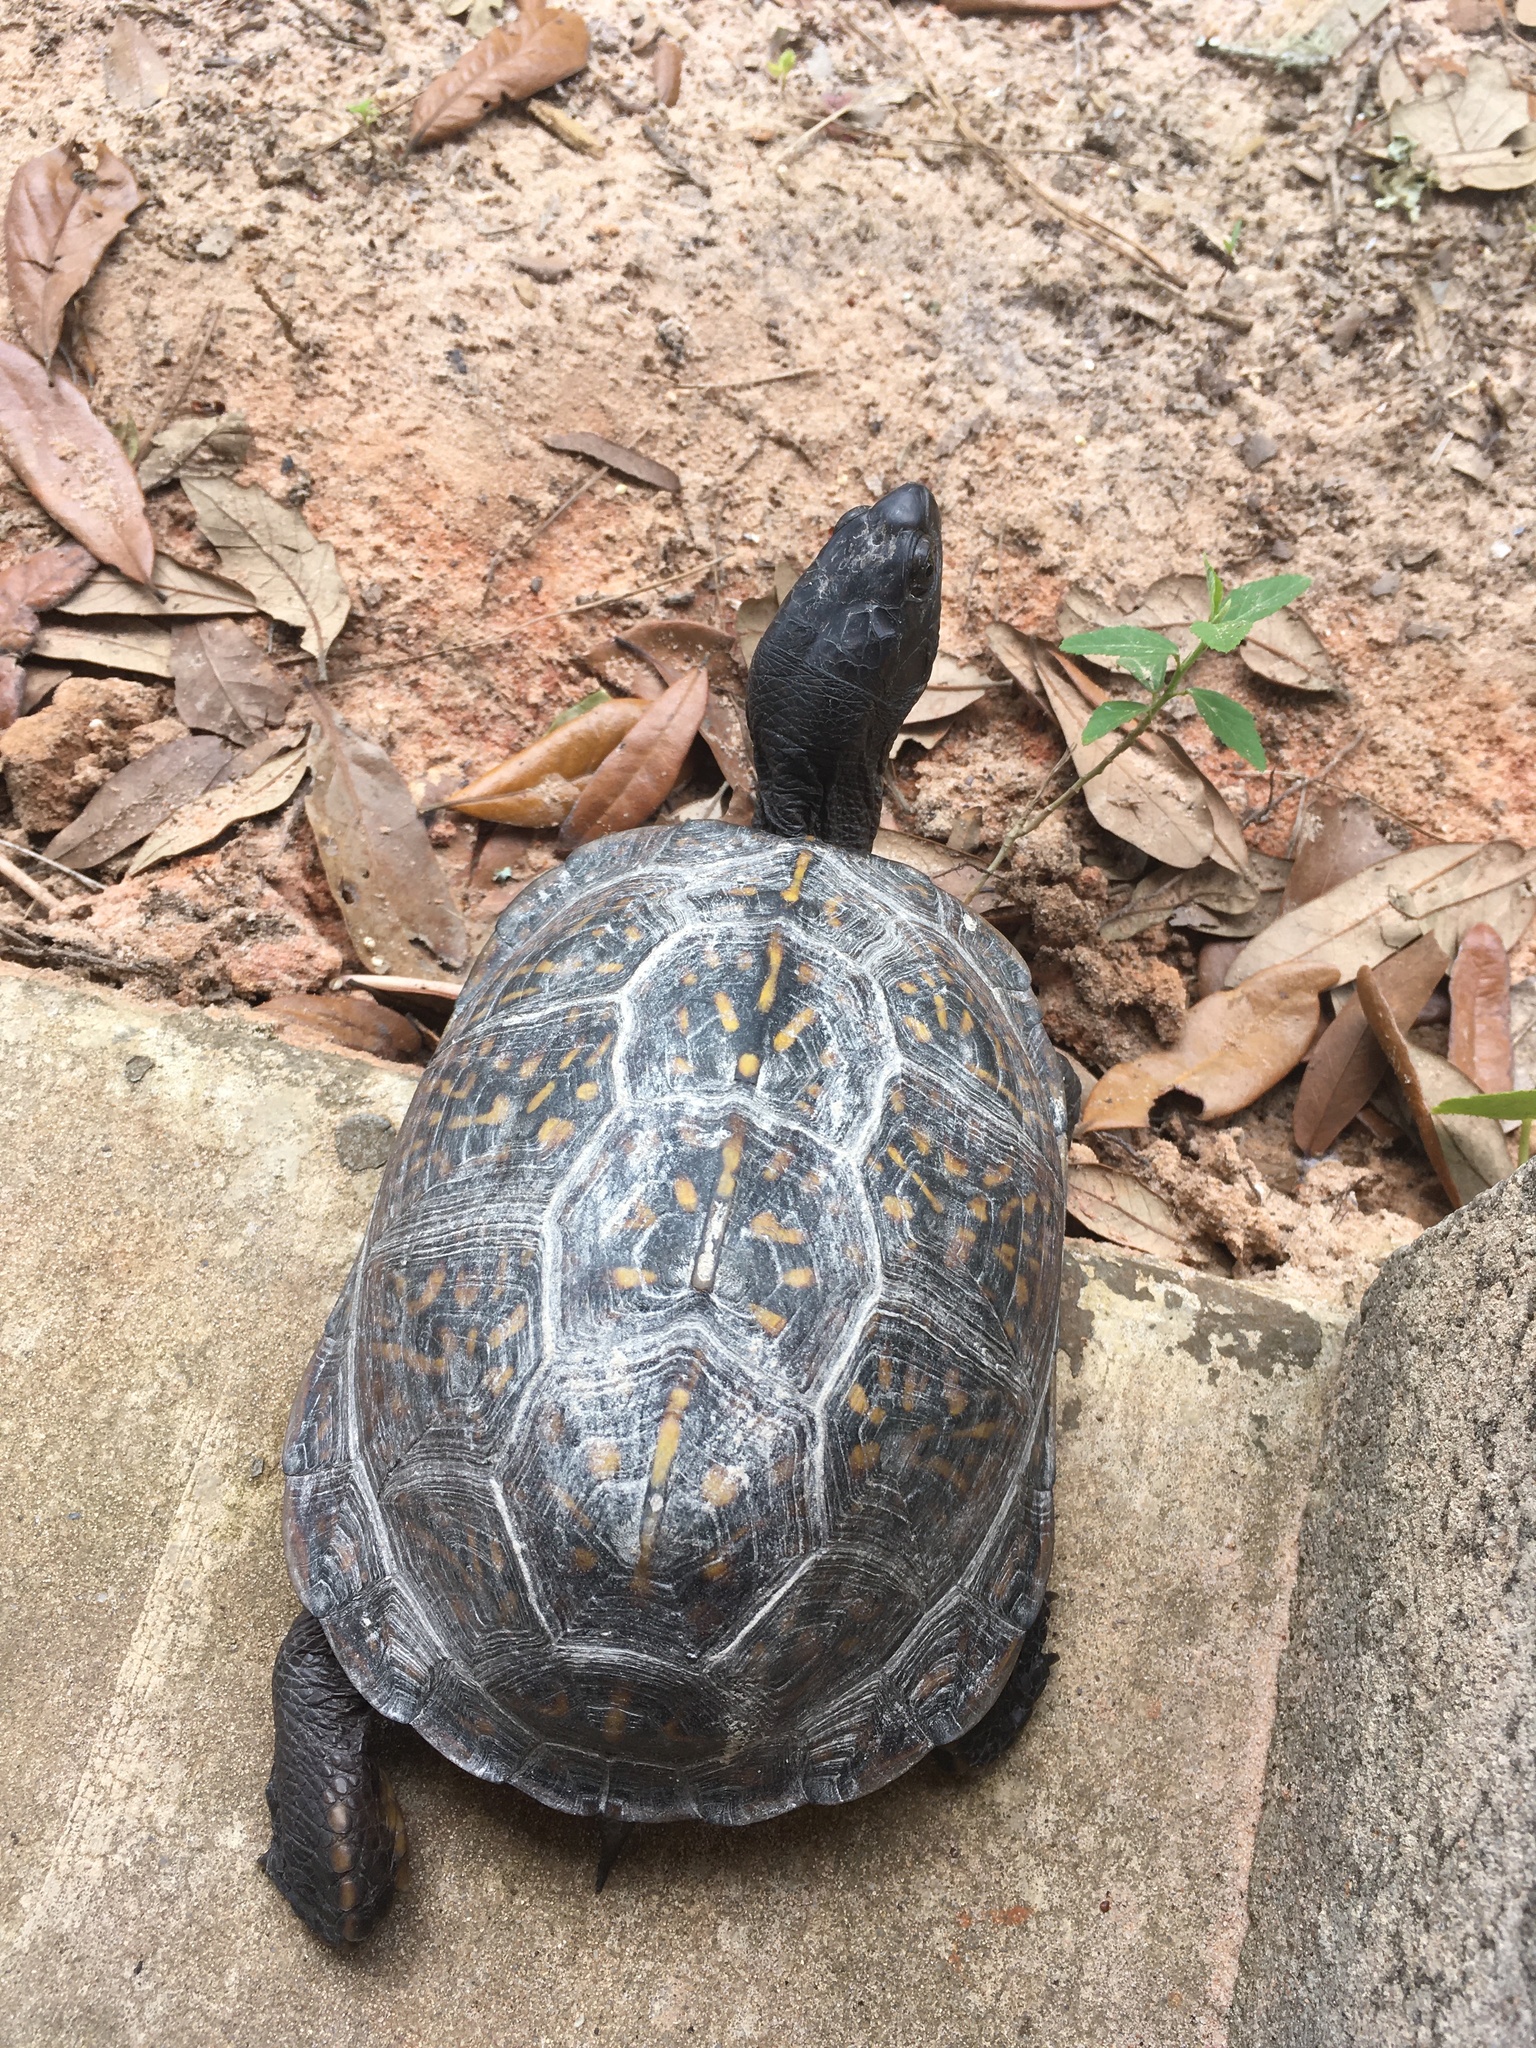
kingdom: Animalia
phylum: Chordata
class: Testudines
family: Emydidae
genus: Terrapene
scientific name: Terrapene carolina
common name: Common box turtle
